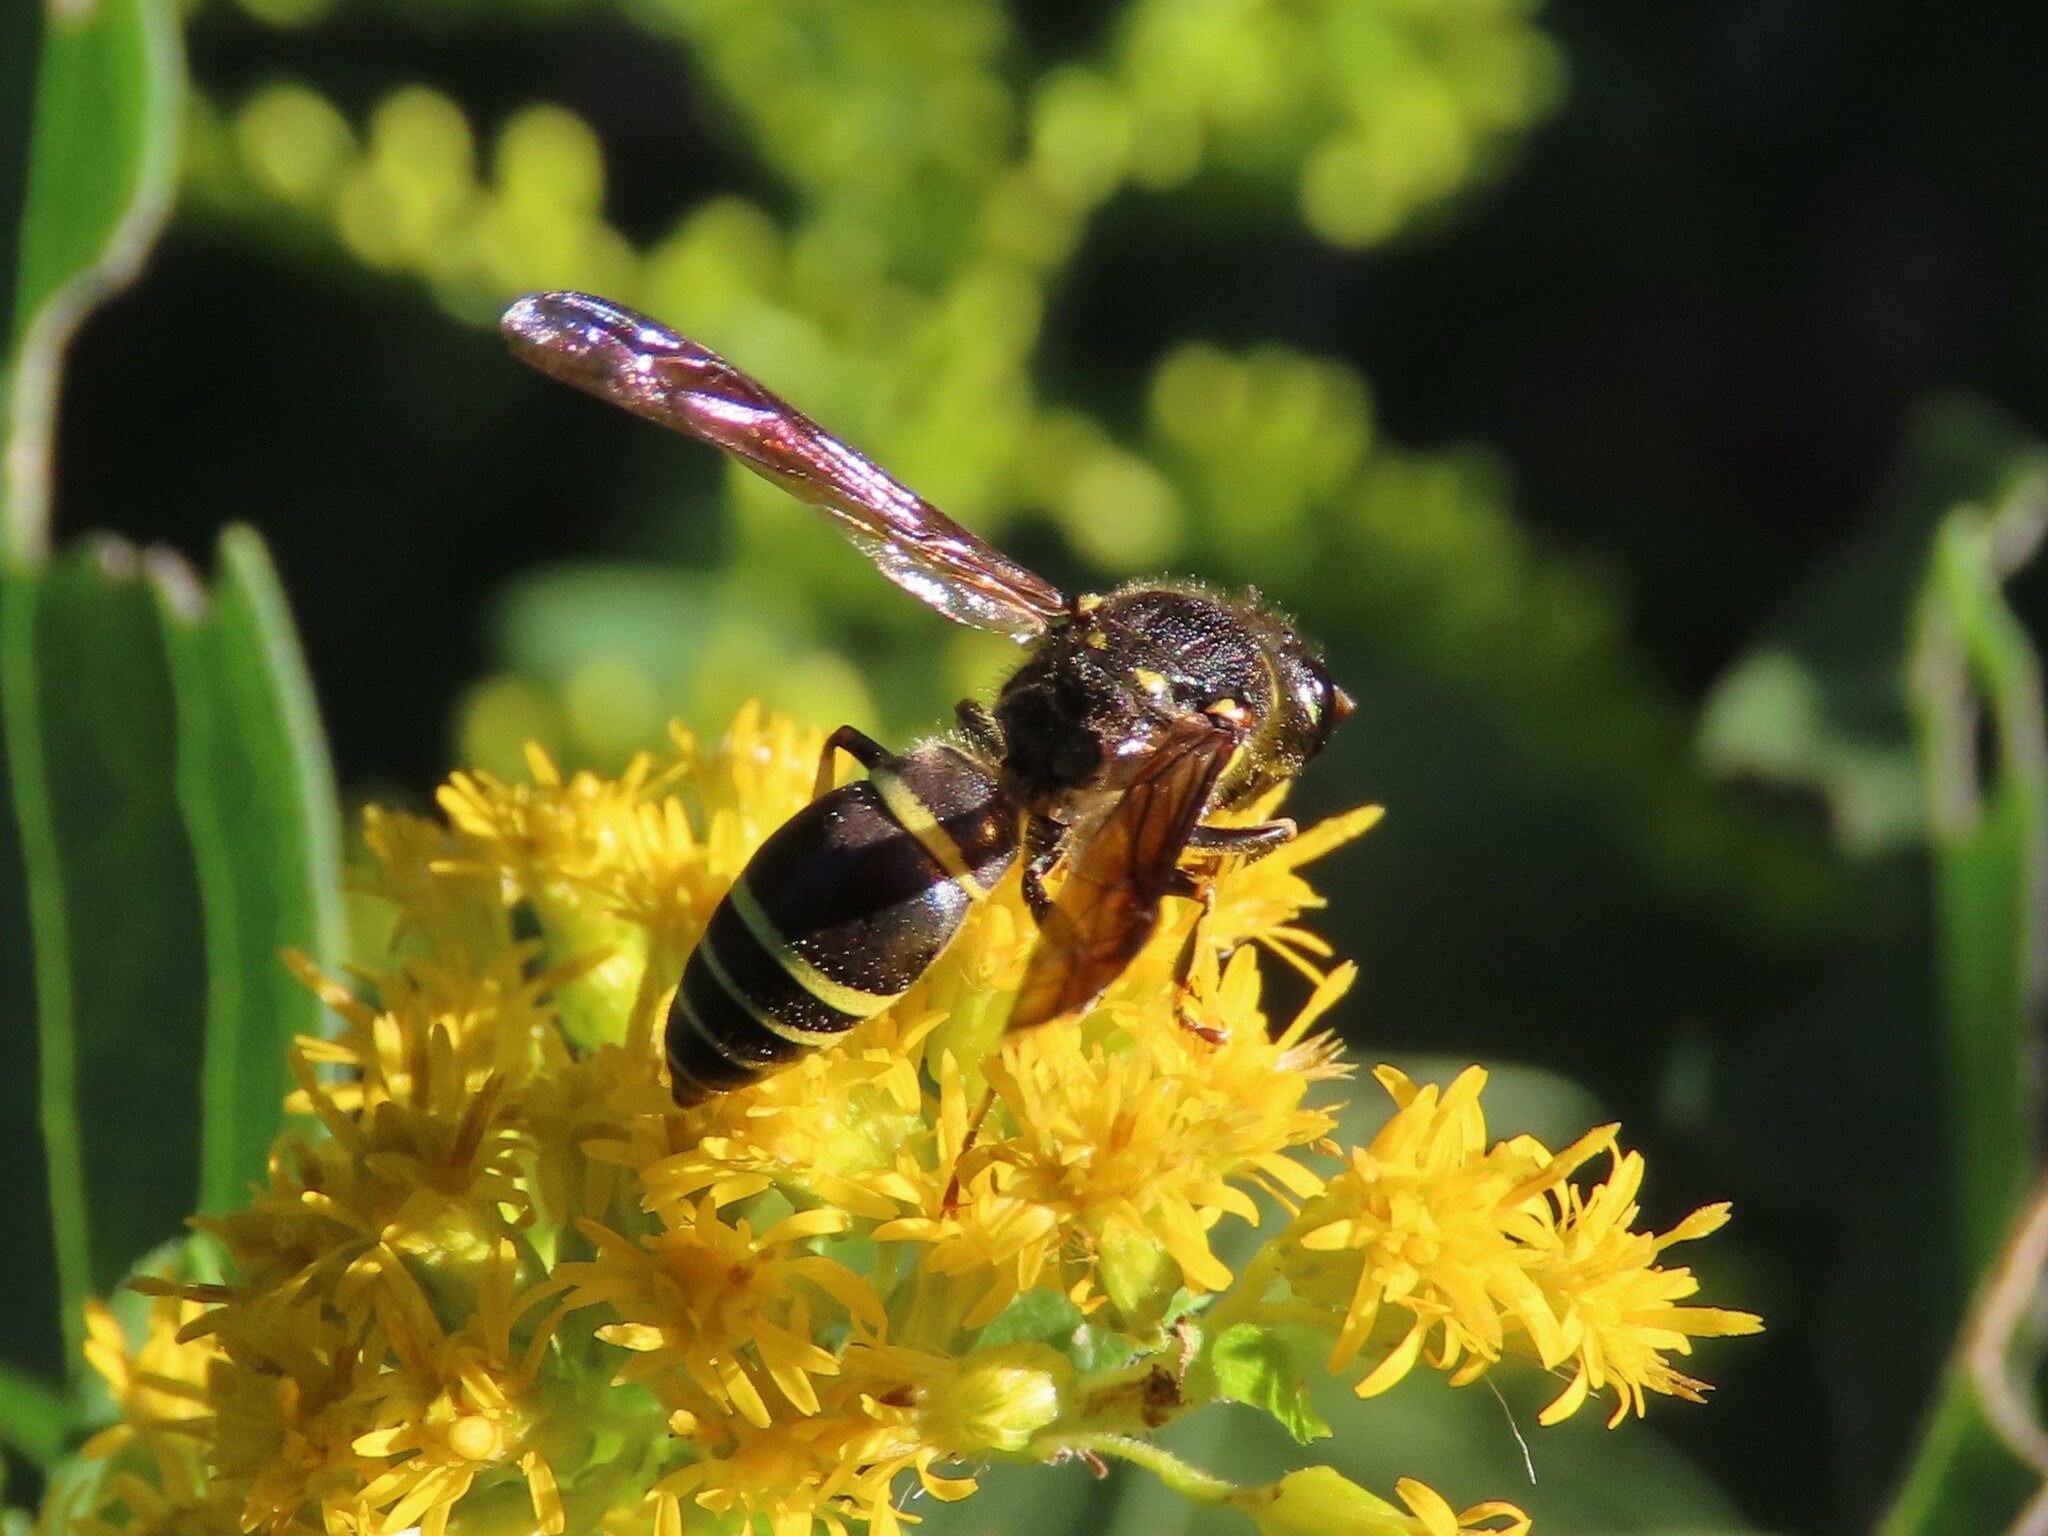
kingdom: Animalia
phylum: Arthropoda
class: Insecta
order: Hymenoptera
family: Vespidae
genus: Ancistrocerus
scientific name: Ancistrocerus
